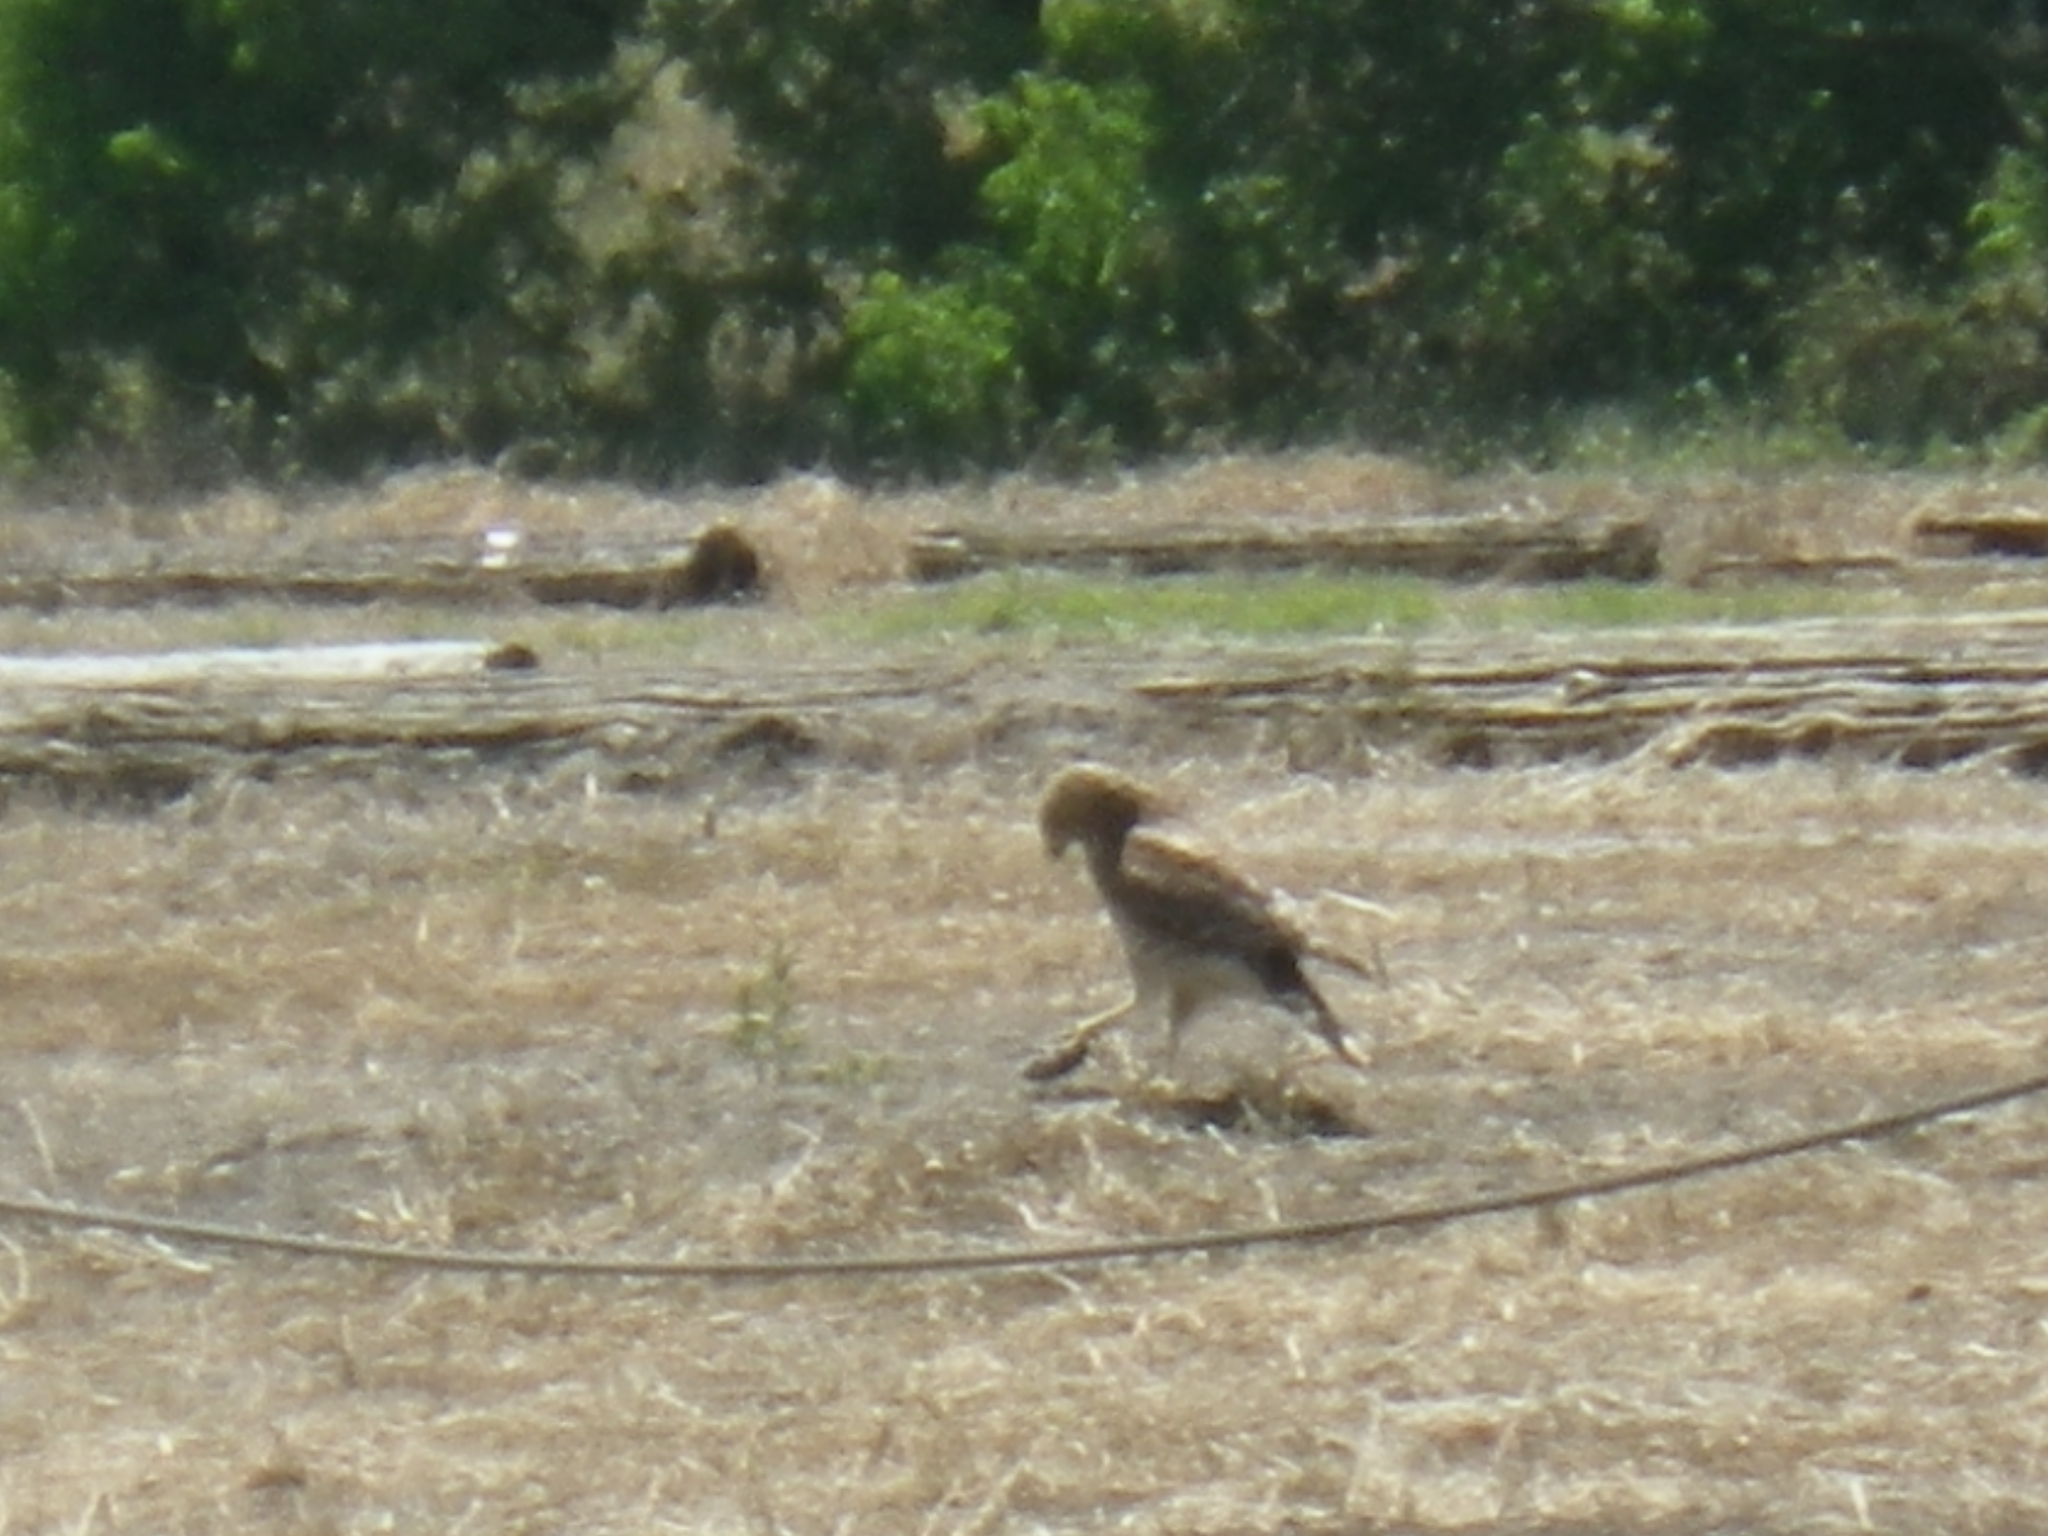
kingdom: Animalia
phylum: Chordata
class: Aves
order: Accipitriformes
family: Accipitridae
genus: Buteo
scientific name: Buteo lineatus
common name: Red-shouldered hawk
